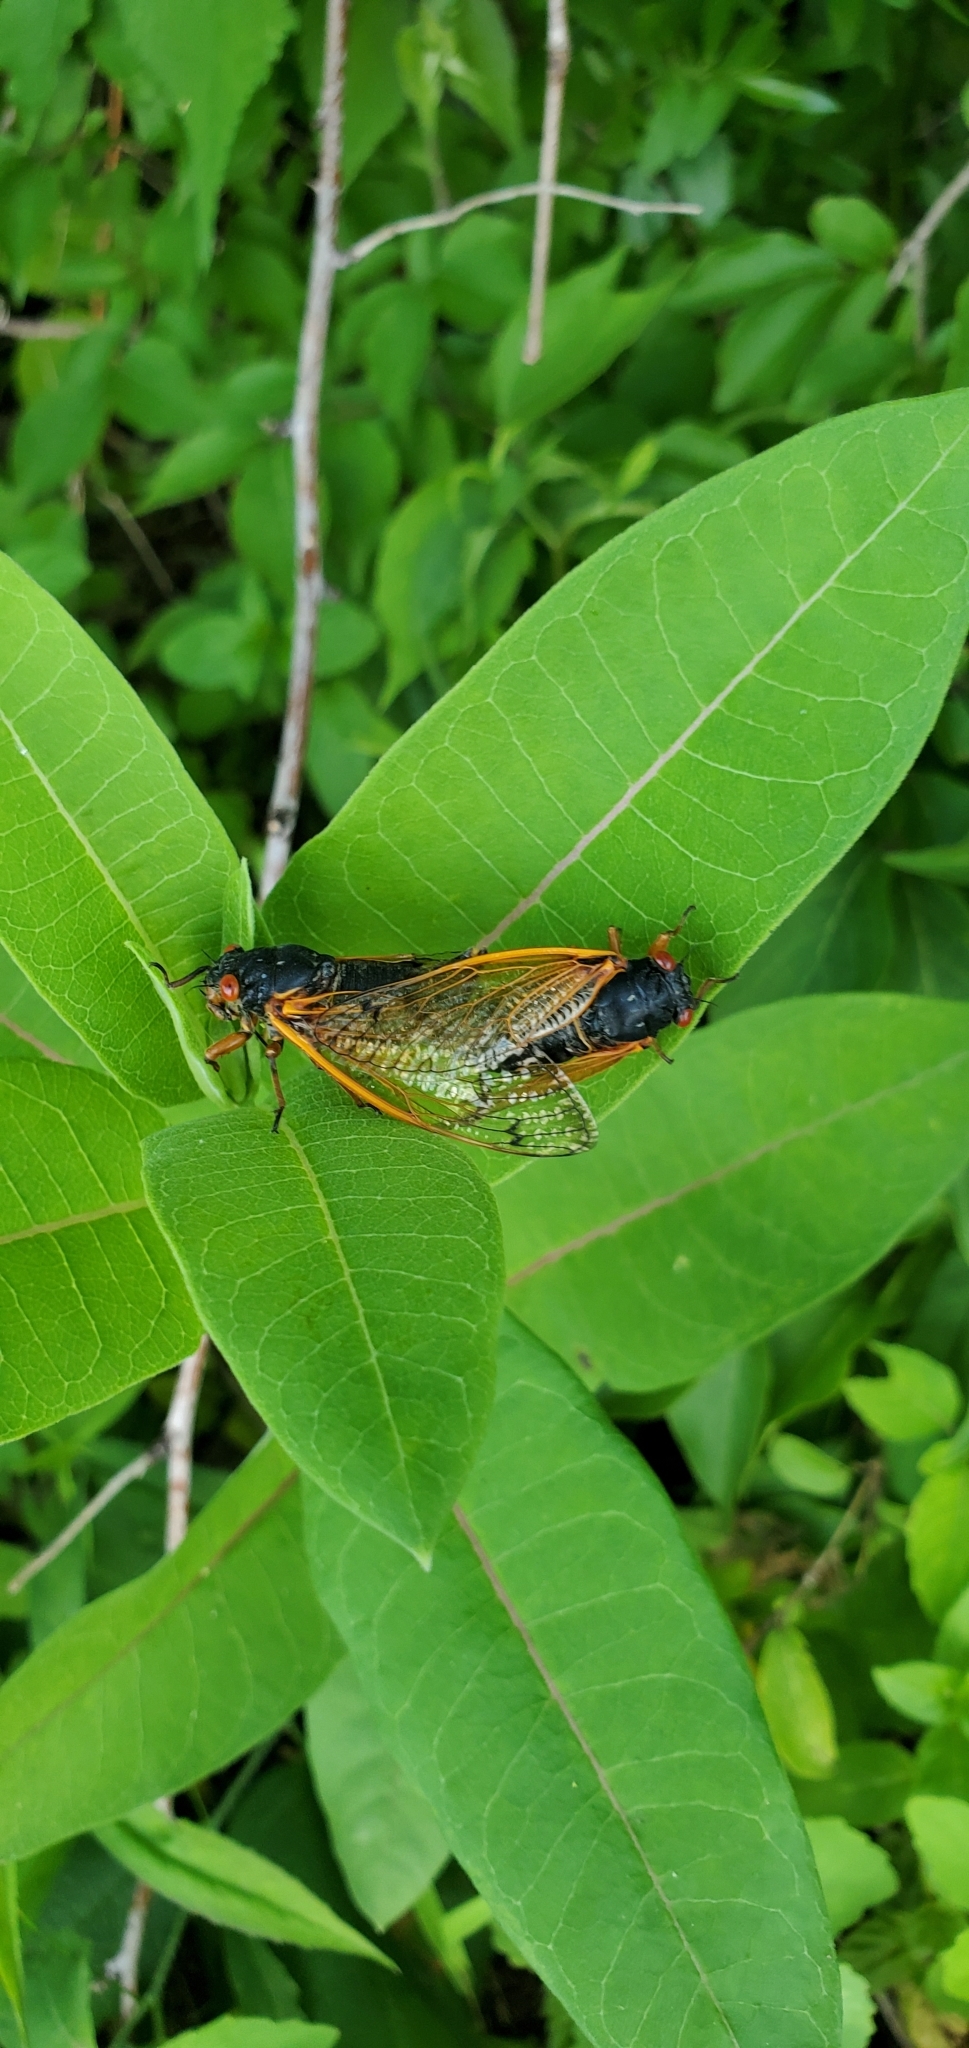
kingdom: Animalia
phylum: Arthropoda
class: Insecta
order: Hemiptera
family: Cicadidae
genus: Magicicada
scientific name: Magicicada
